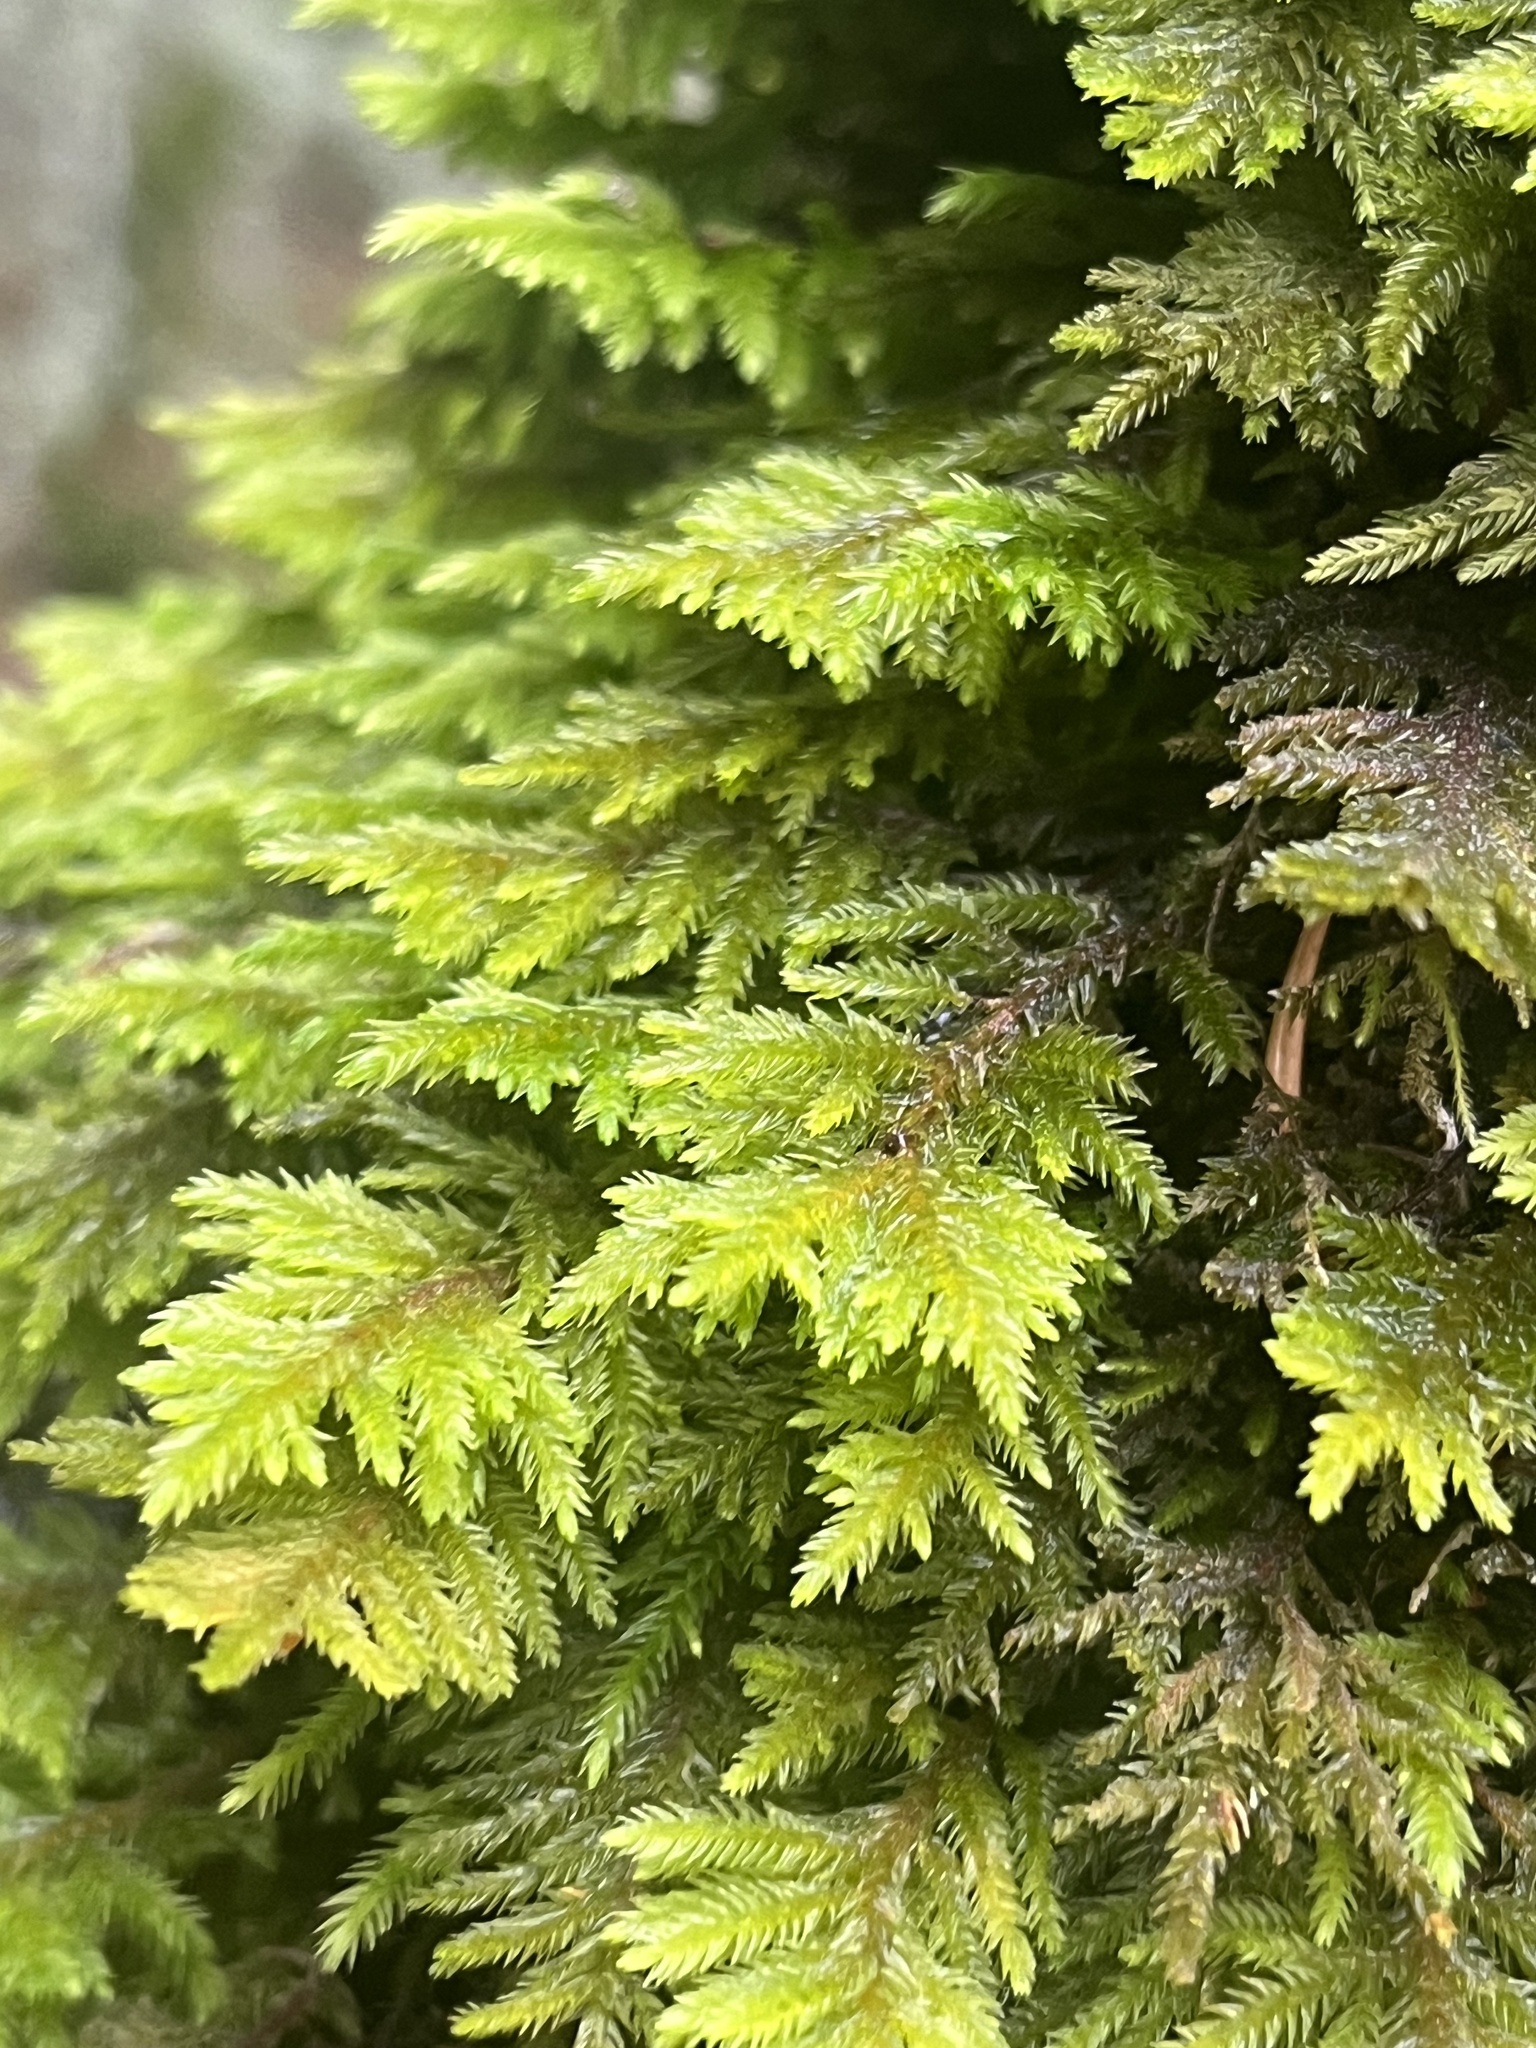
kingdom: Plantae
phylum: Bryophyta
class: Bryopsida
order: Hypnales
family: Cryphaeaceae
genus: Dendroalsia
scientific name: Dendroalsia abietina
